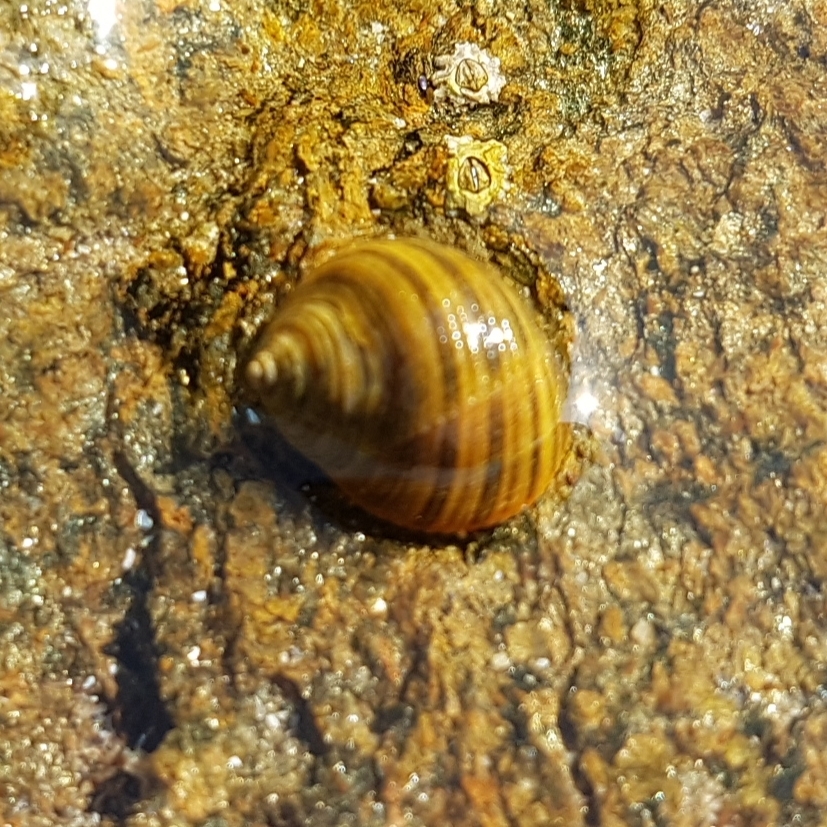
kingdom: Animalia
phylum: Mollusca
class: Gastropoda
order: Littorinimorpha
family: Littorinidae
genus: Littorina
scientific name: Littorina littorea
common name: Common periwinkle
